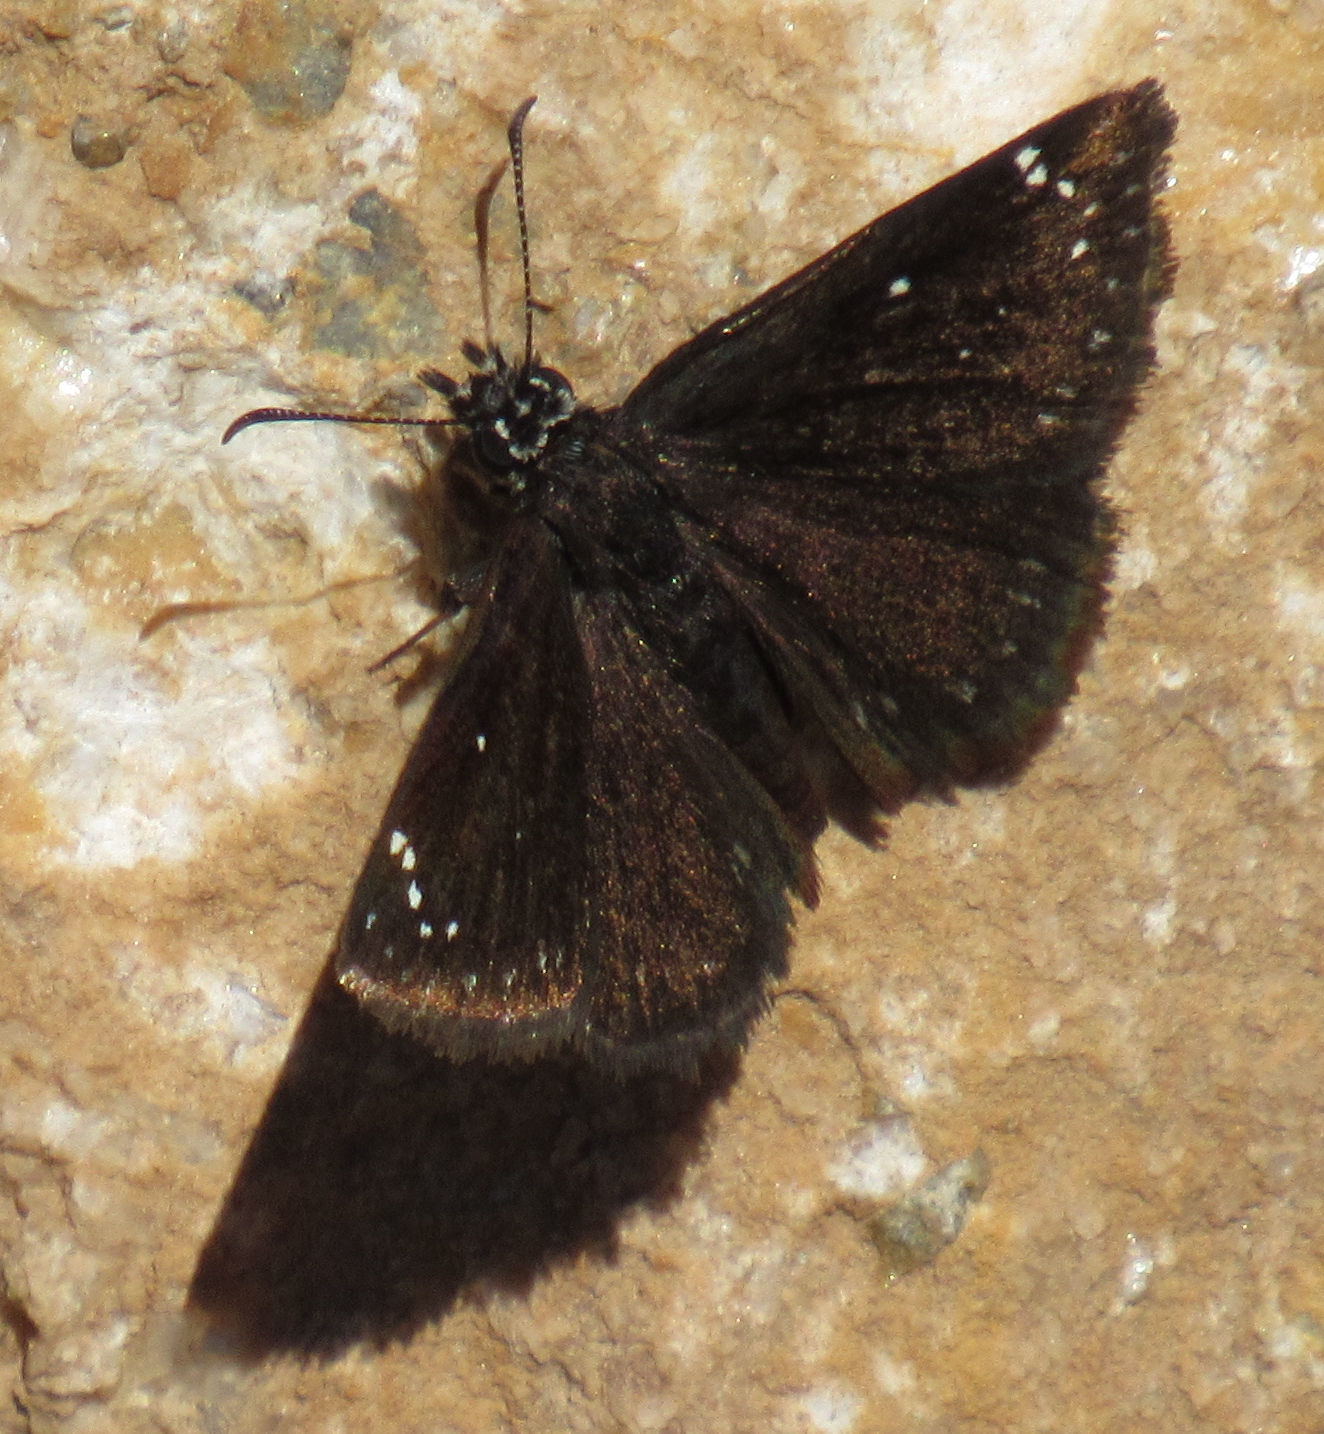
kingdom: Animalia
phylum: Arthropoda
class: Insecta
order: Lepidoptera
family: Hesperiidae
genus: Pholisora
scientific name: Pholisora catullus
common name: Common sootywing
